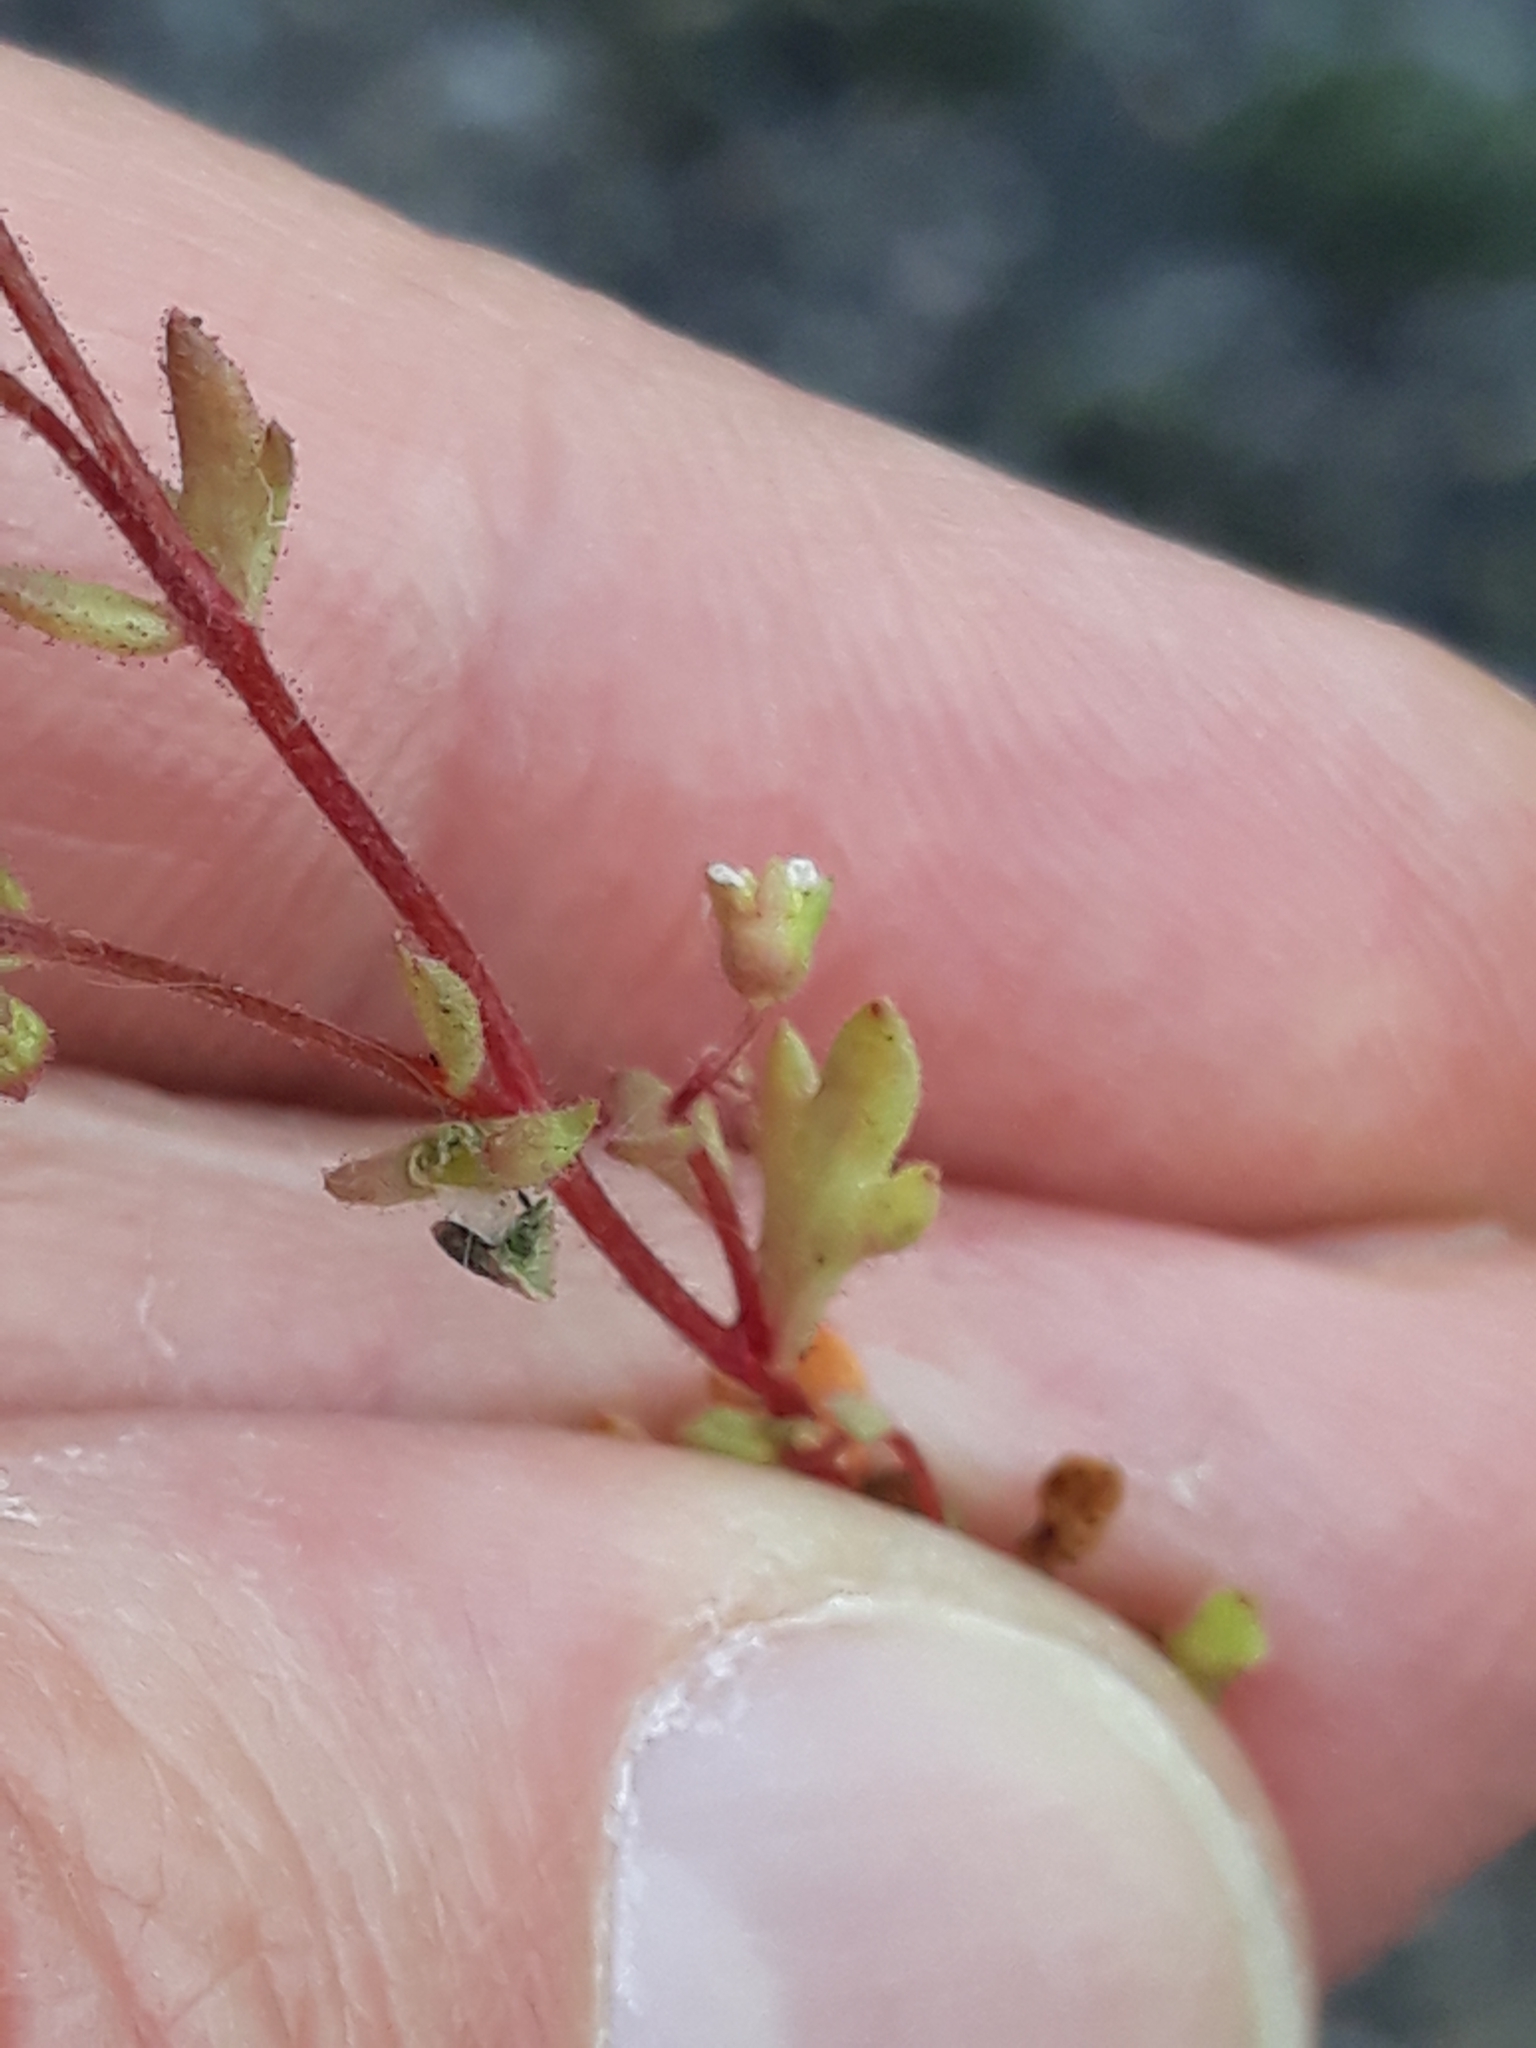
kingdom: Plantae
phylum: Tracheophyta
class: Magnoliopsida
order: Saxifragales
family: Saxifragaceae
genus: Saxifraga
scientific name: Saxifraga tridactylites
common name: Rue-leaved saxifrage
